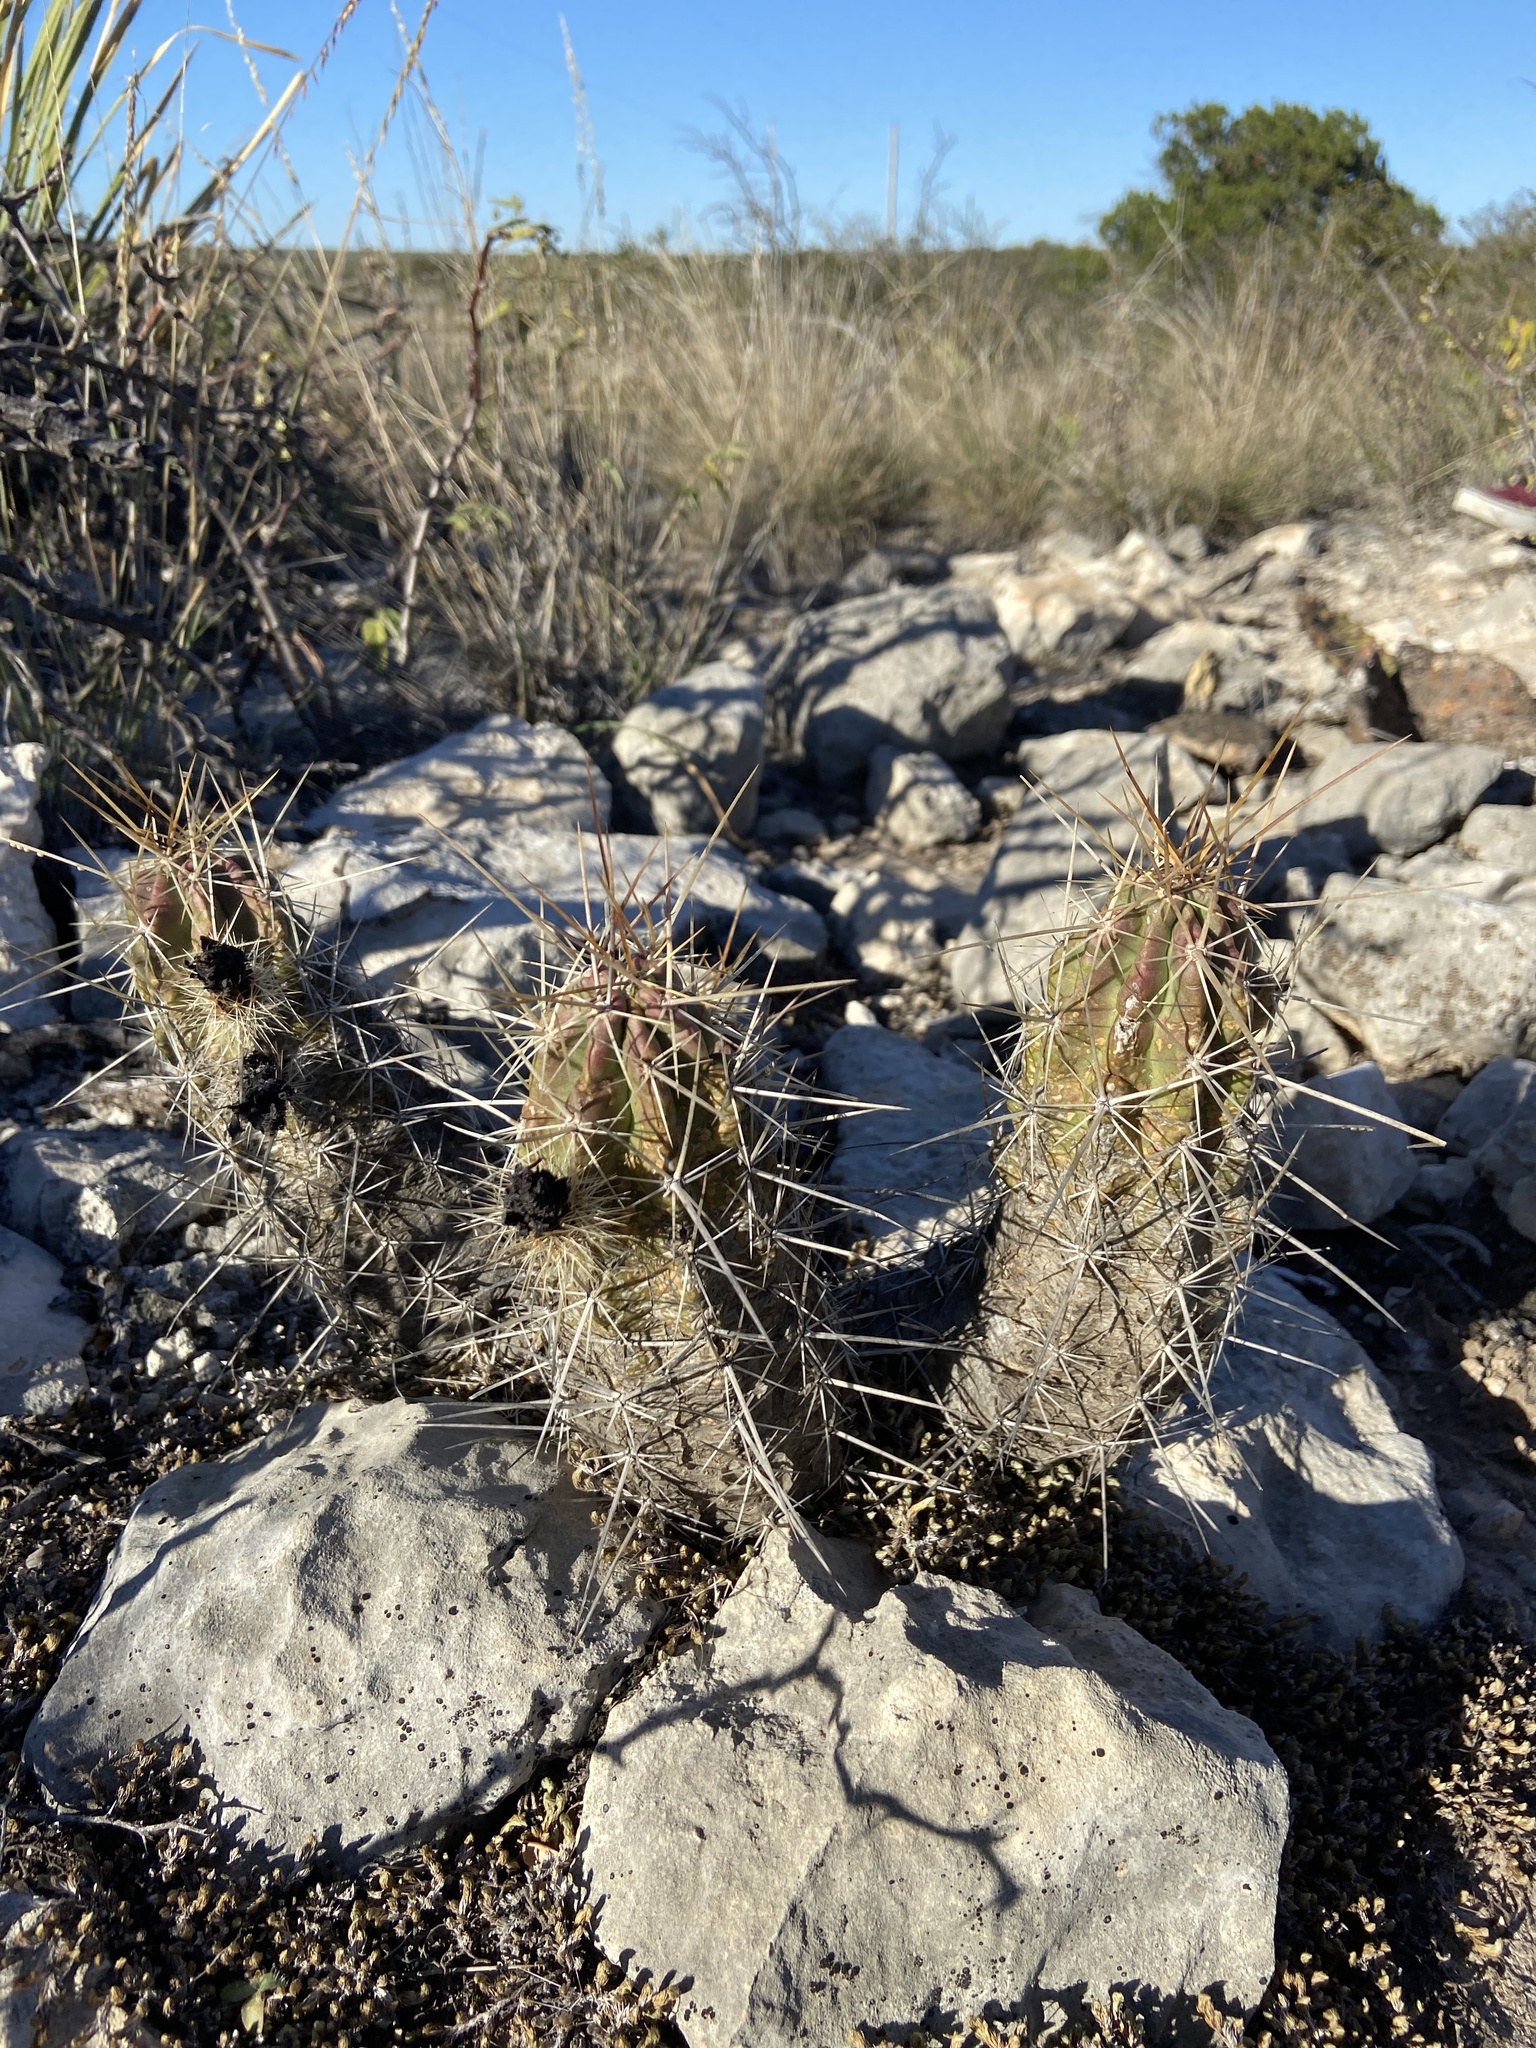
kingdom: Plantae
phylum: Tracheophyta
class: Magnoliopsida
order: Caryophyllales
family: Cactaceae
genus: Echinocereus
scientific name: Echinocereus enneacanthus
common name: Pitaya
